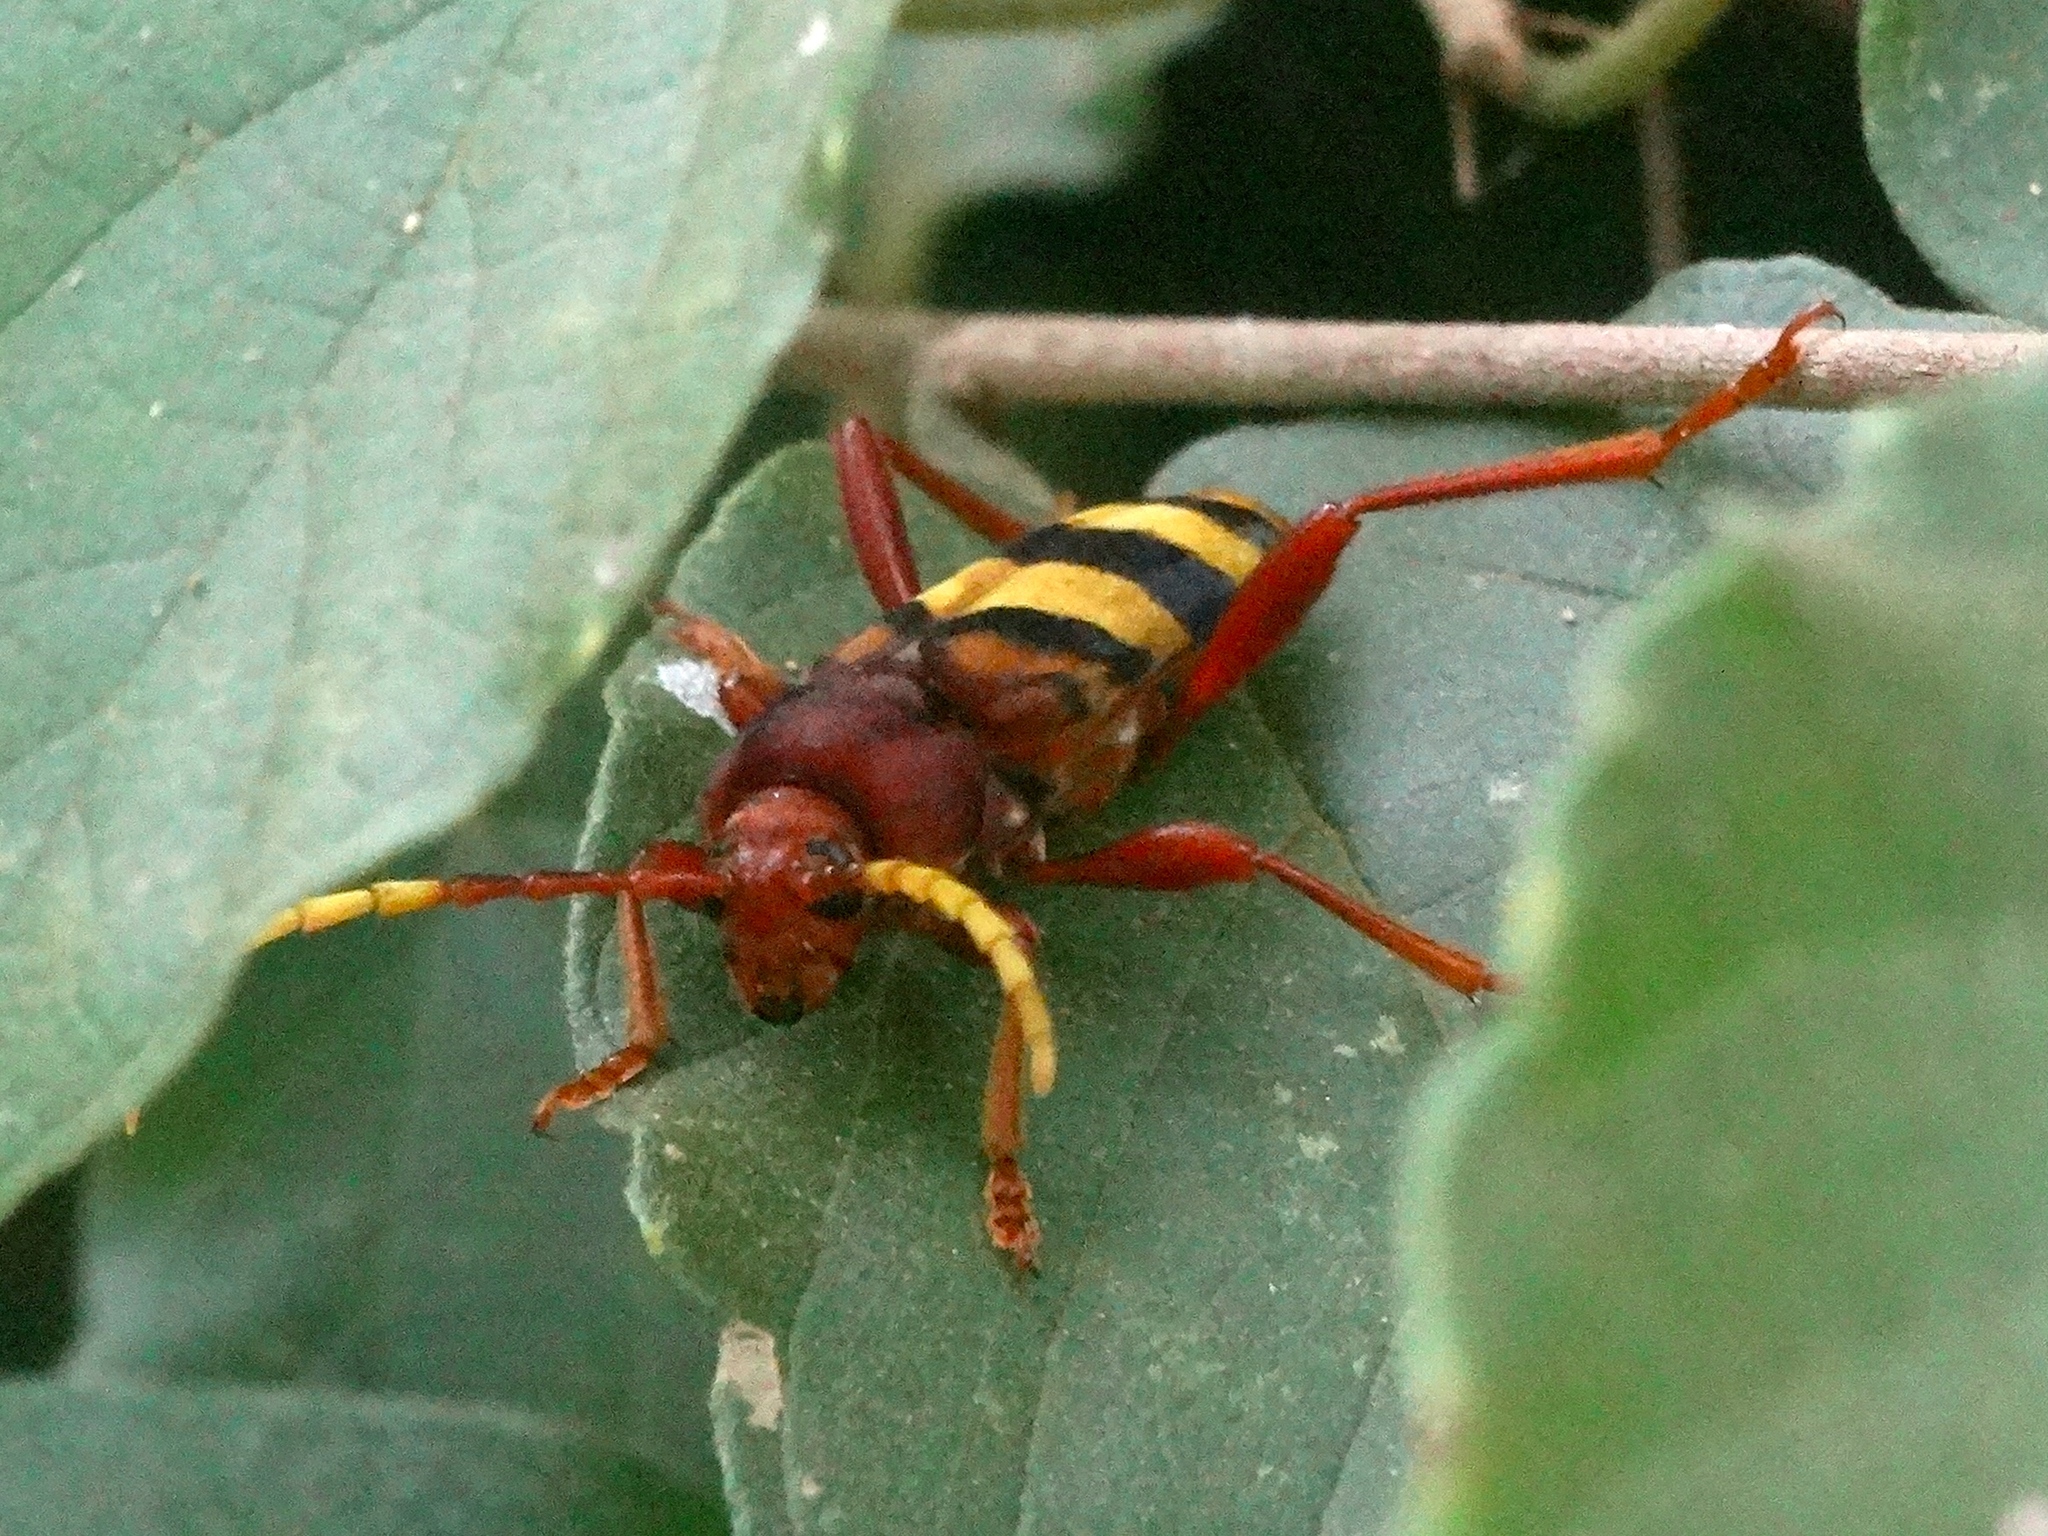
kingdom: Animalia
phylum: Arthropoda
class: Insecta
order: Coleoptera
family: Cerambycidae
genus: Dexithea
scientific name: Dexithea klugii
